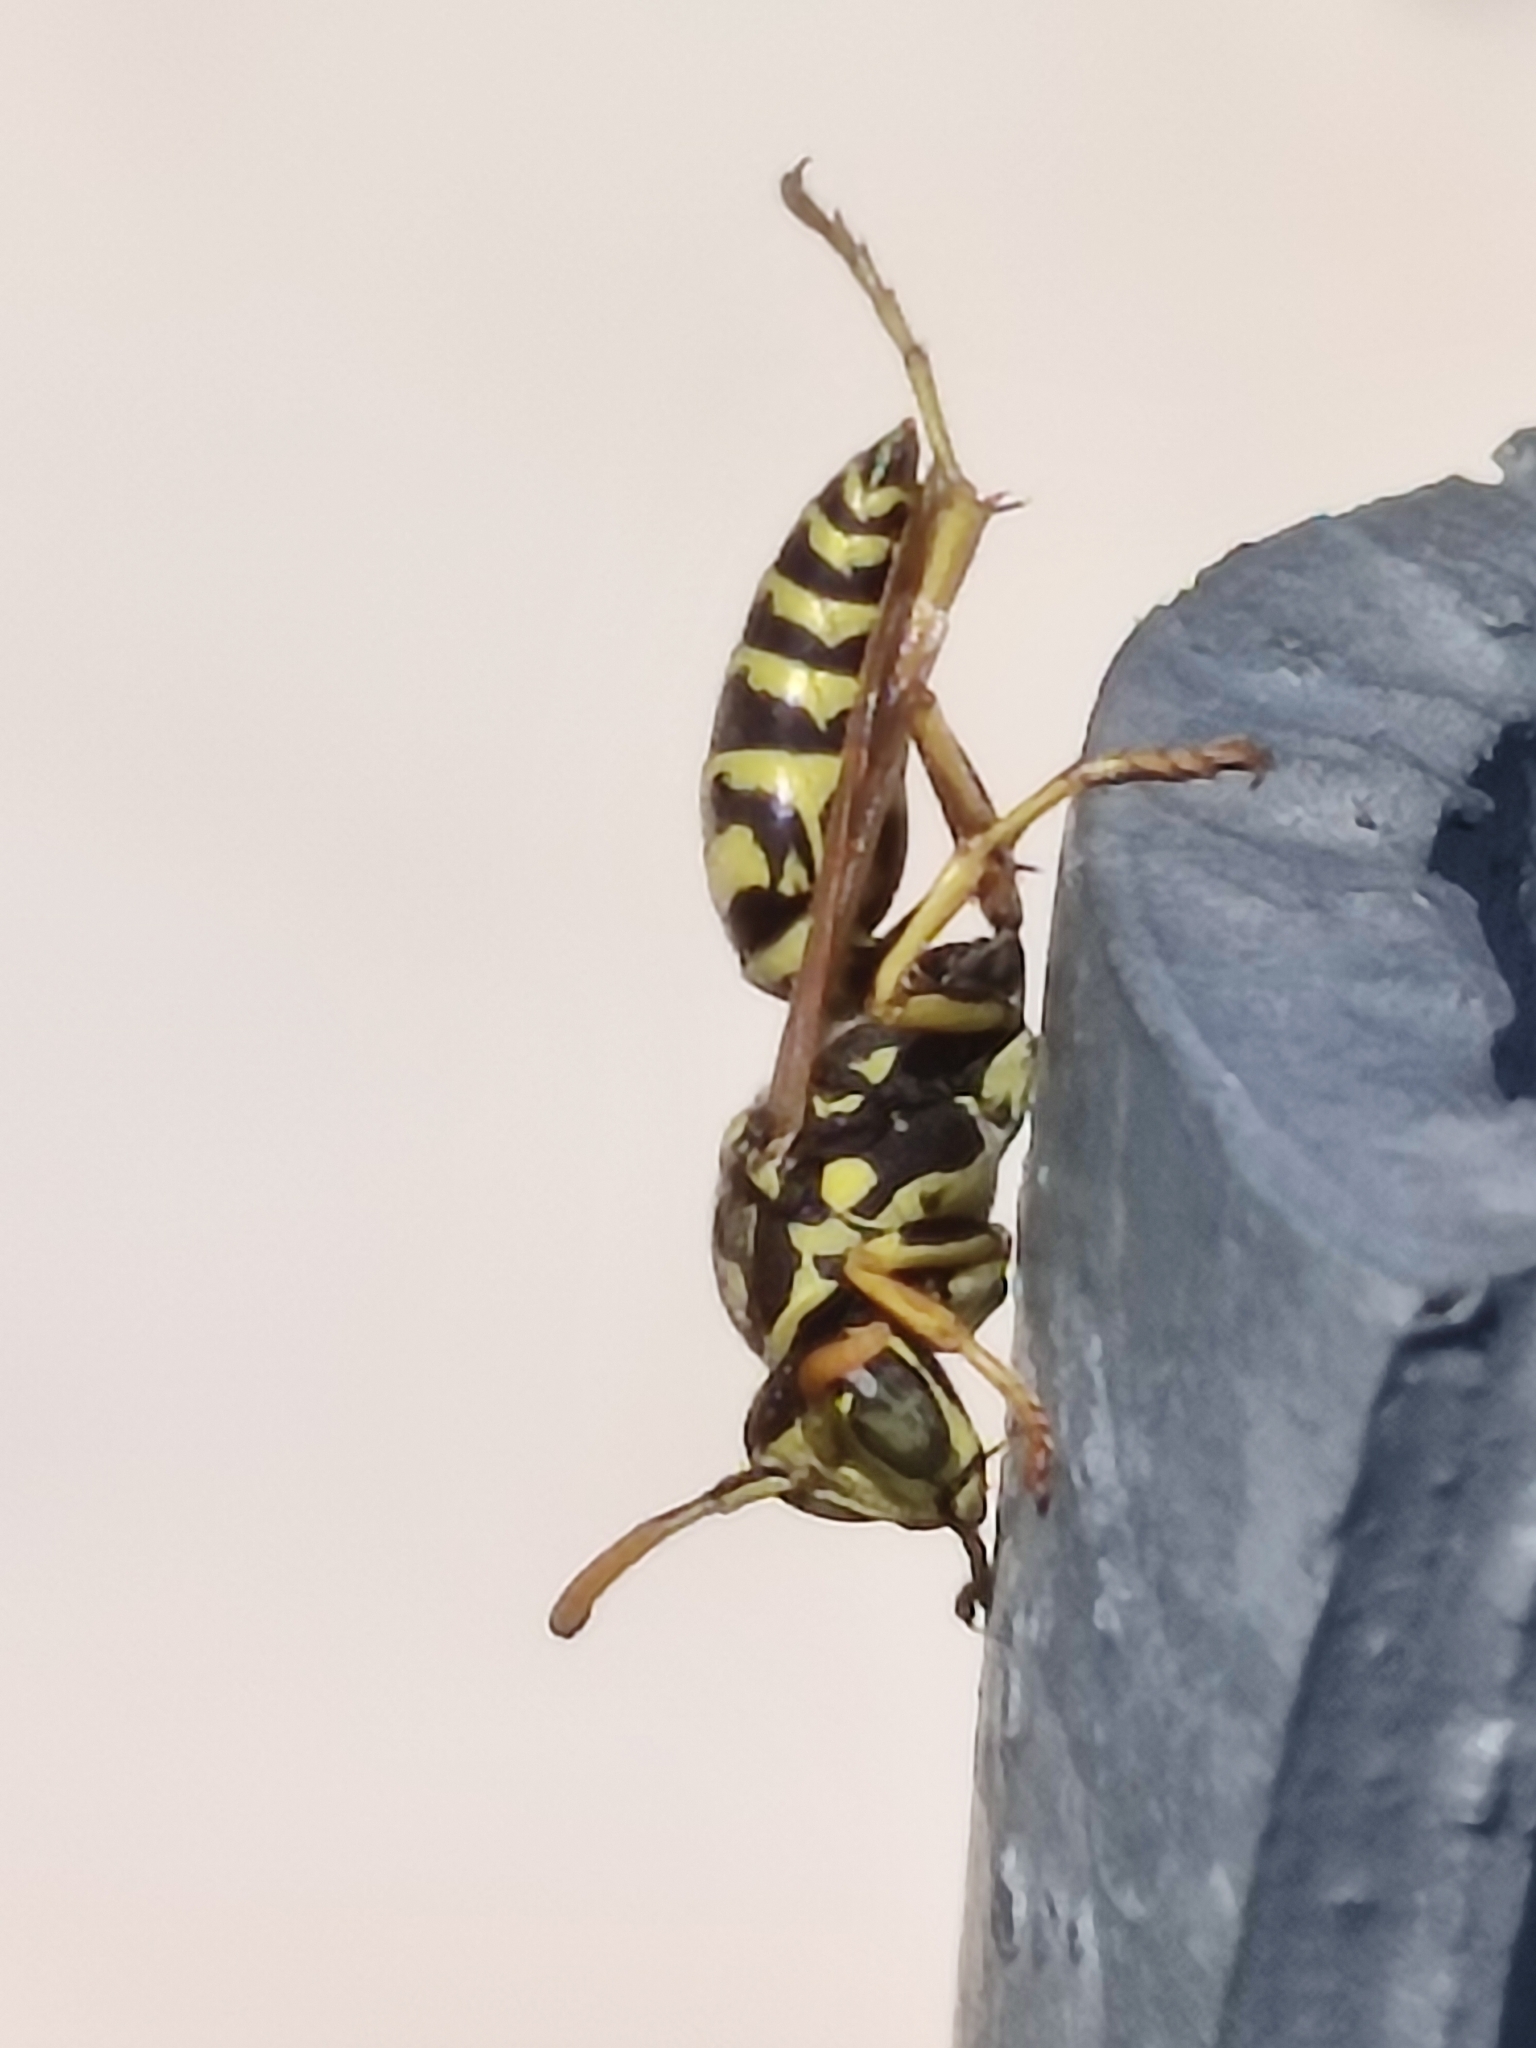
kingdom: Animalia
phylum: Arthropoda
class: Insecta
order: Hymenoptera
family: Eumenidae
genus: Polistes
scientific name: Polistes dominula
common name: Paper wasp
